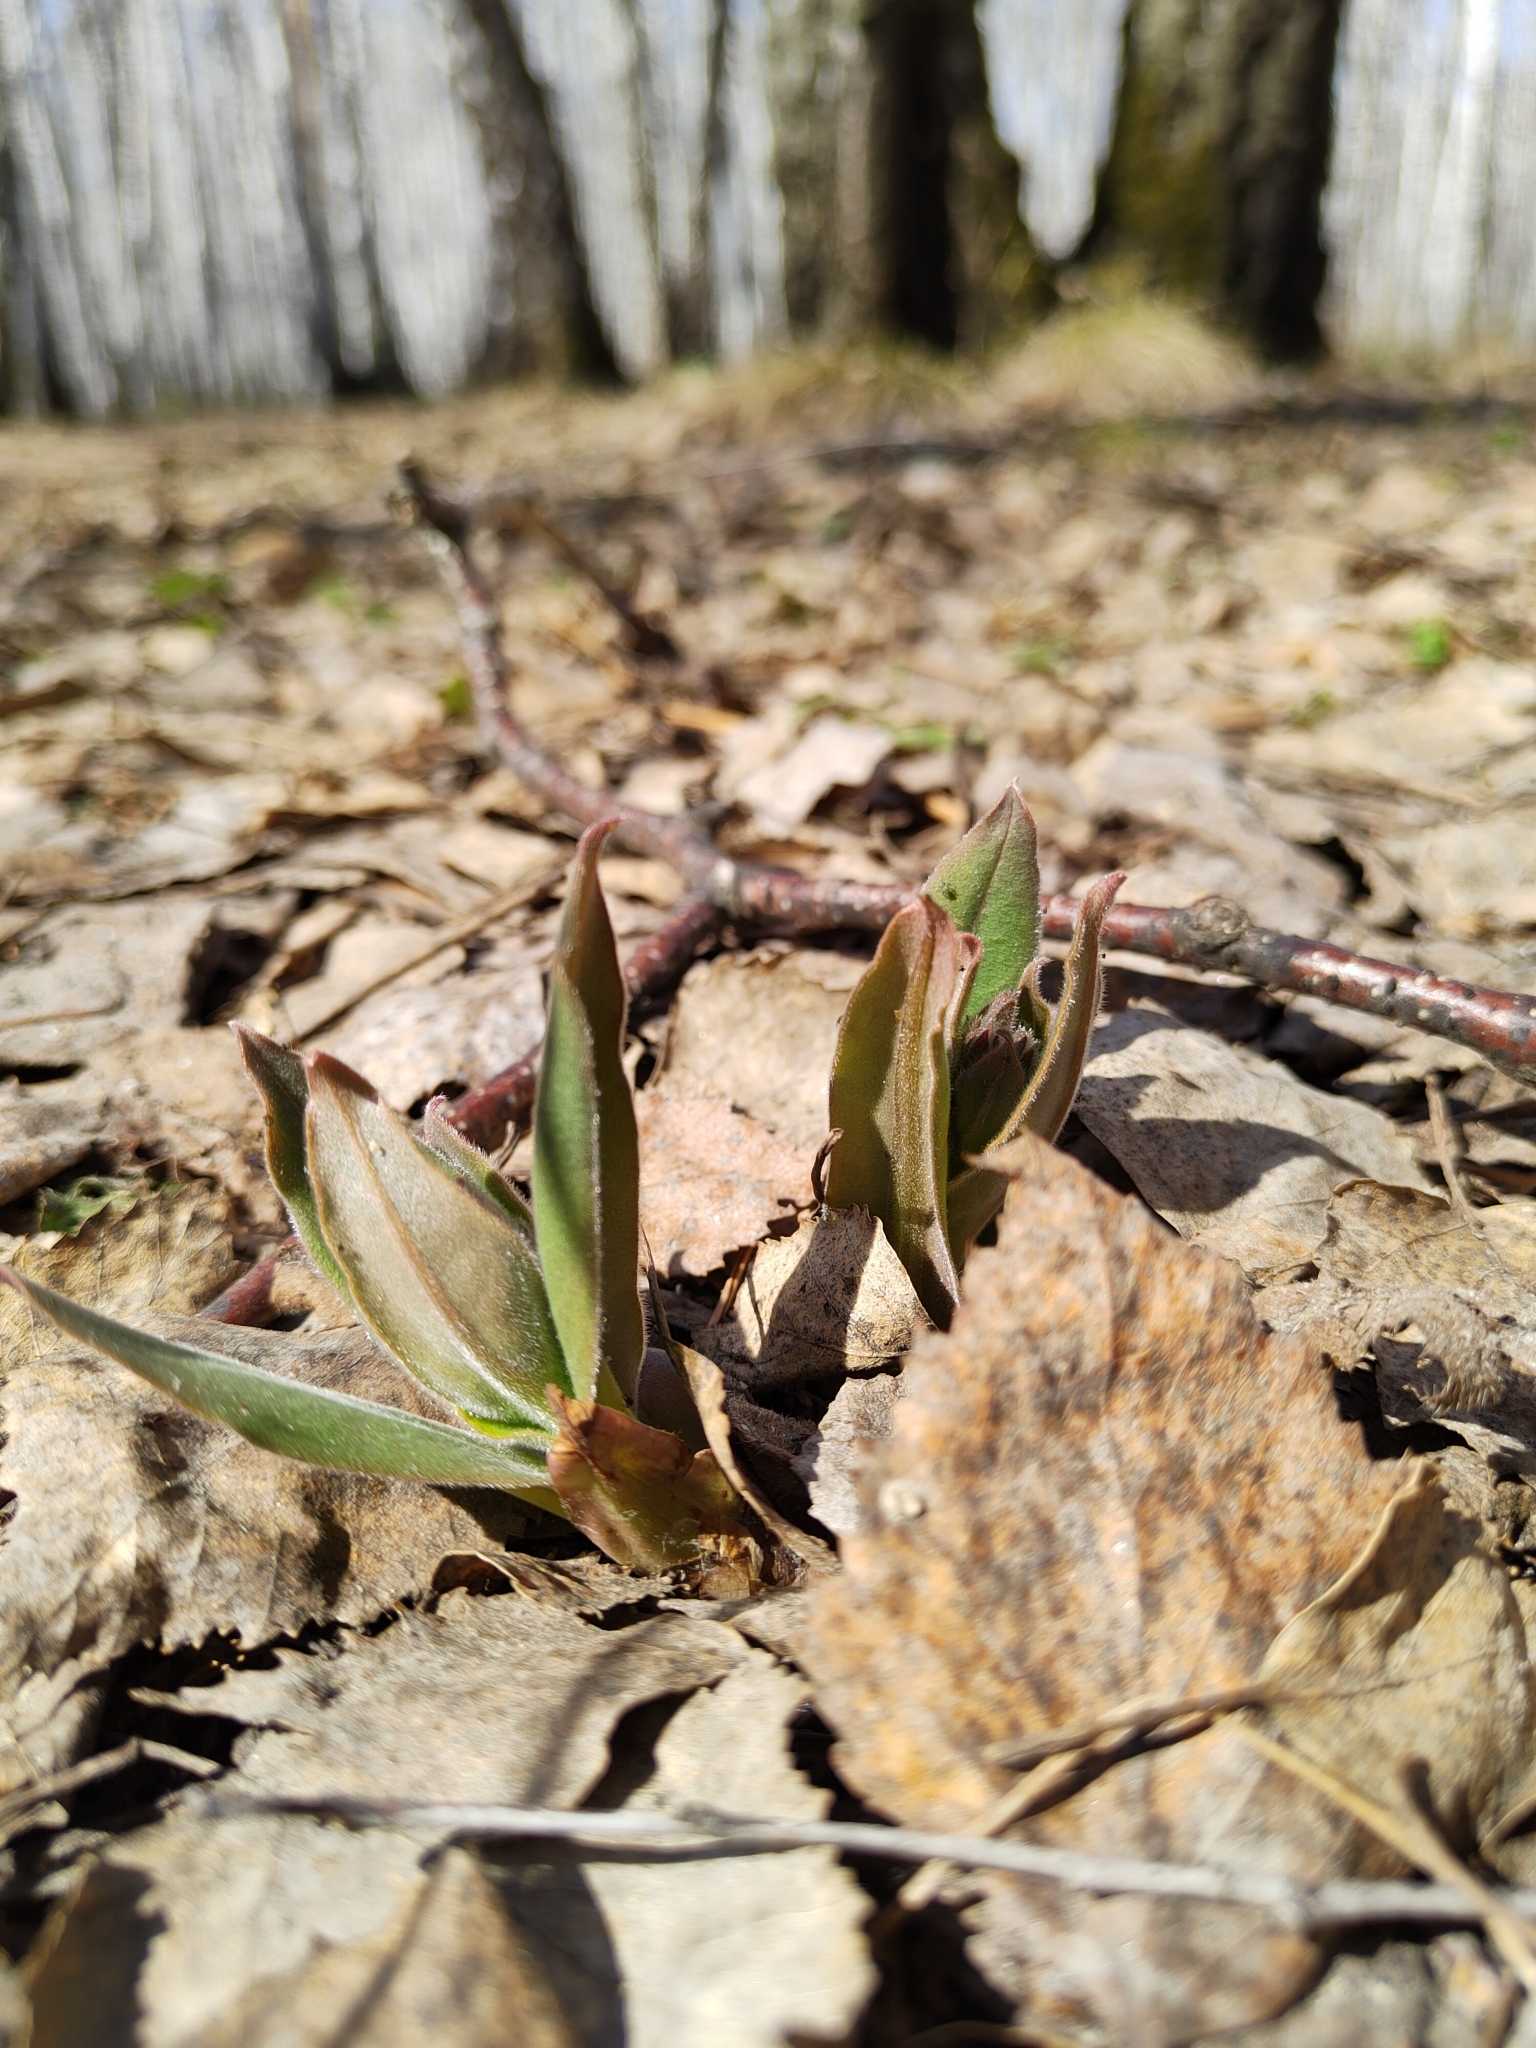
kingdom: Plantae
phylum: Tracheophyta
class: Magnoliopsida
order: Boraginales
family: Boraginaceae
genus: Pulmonaria
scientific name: Pulmonaria mollis
